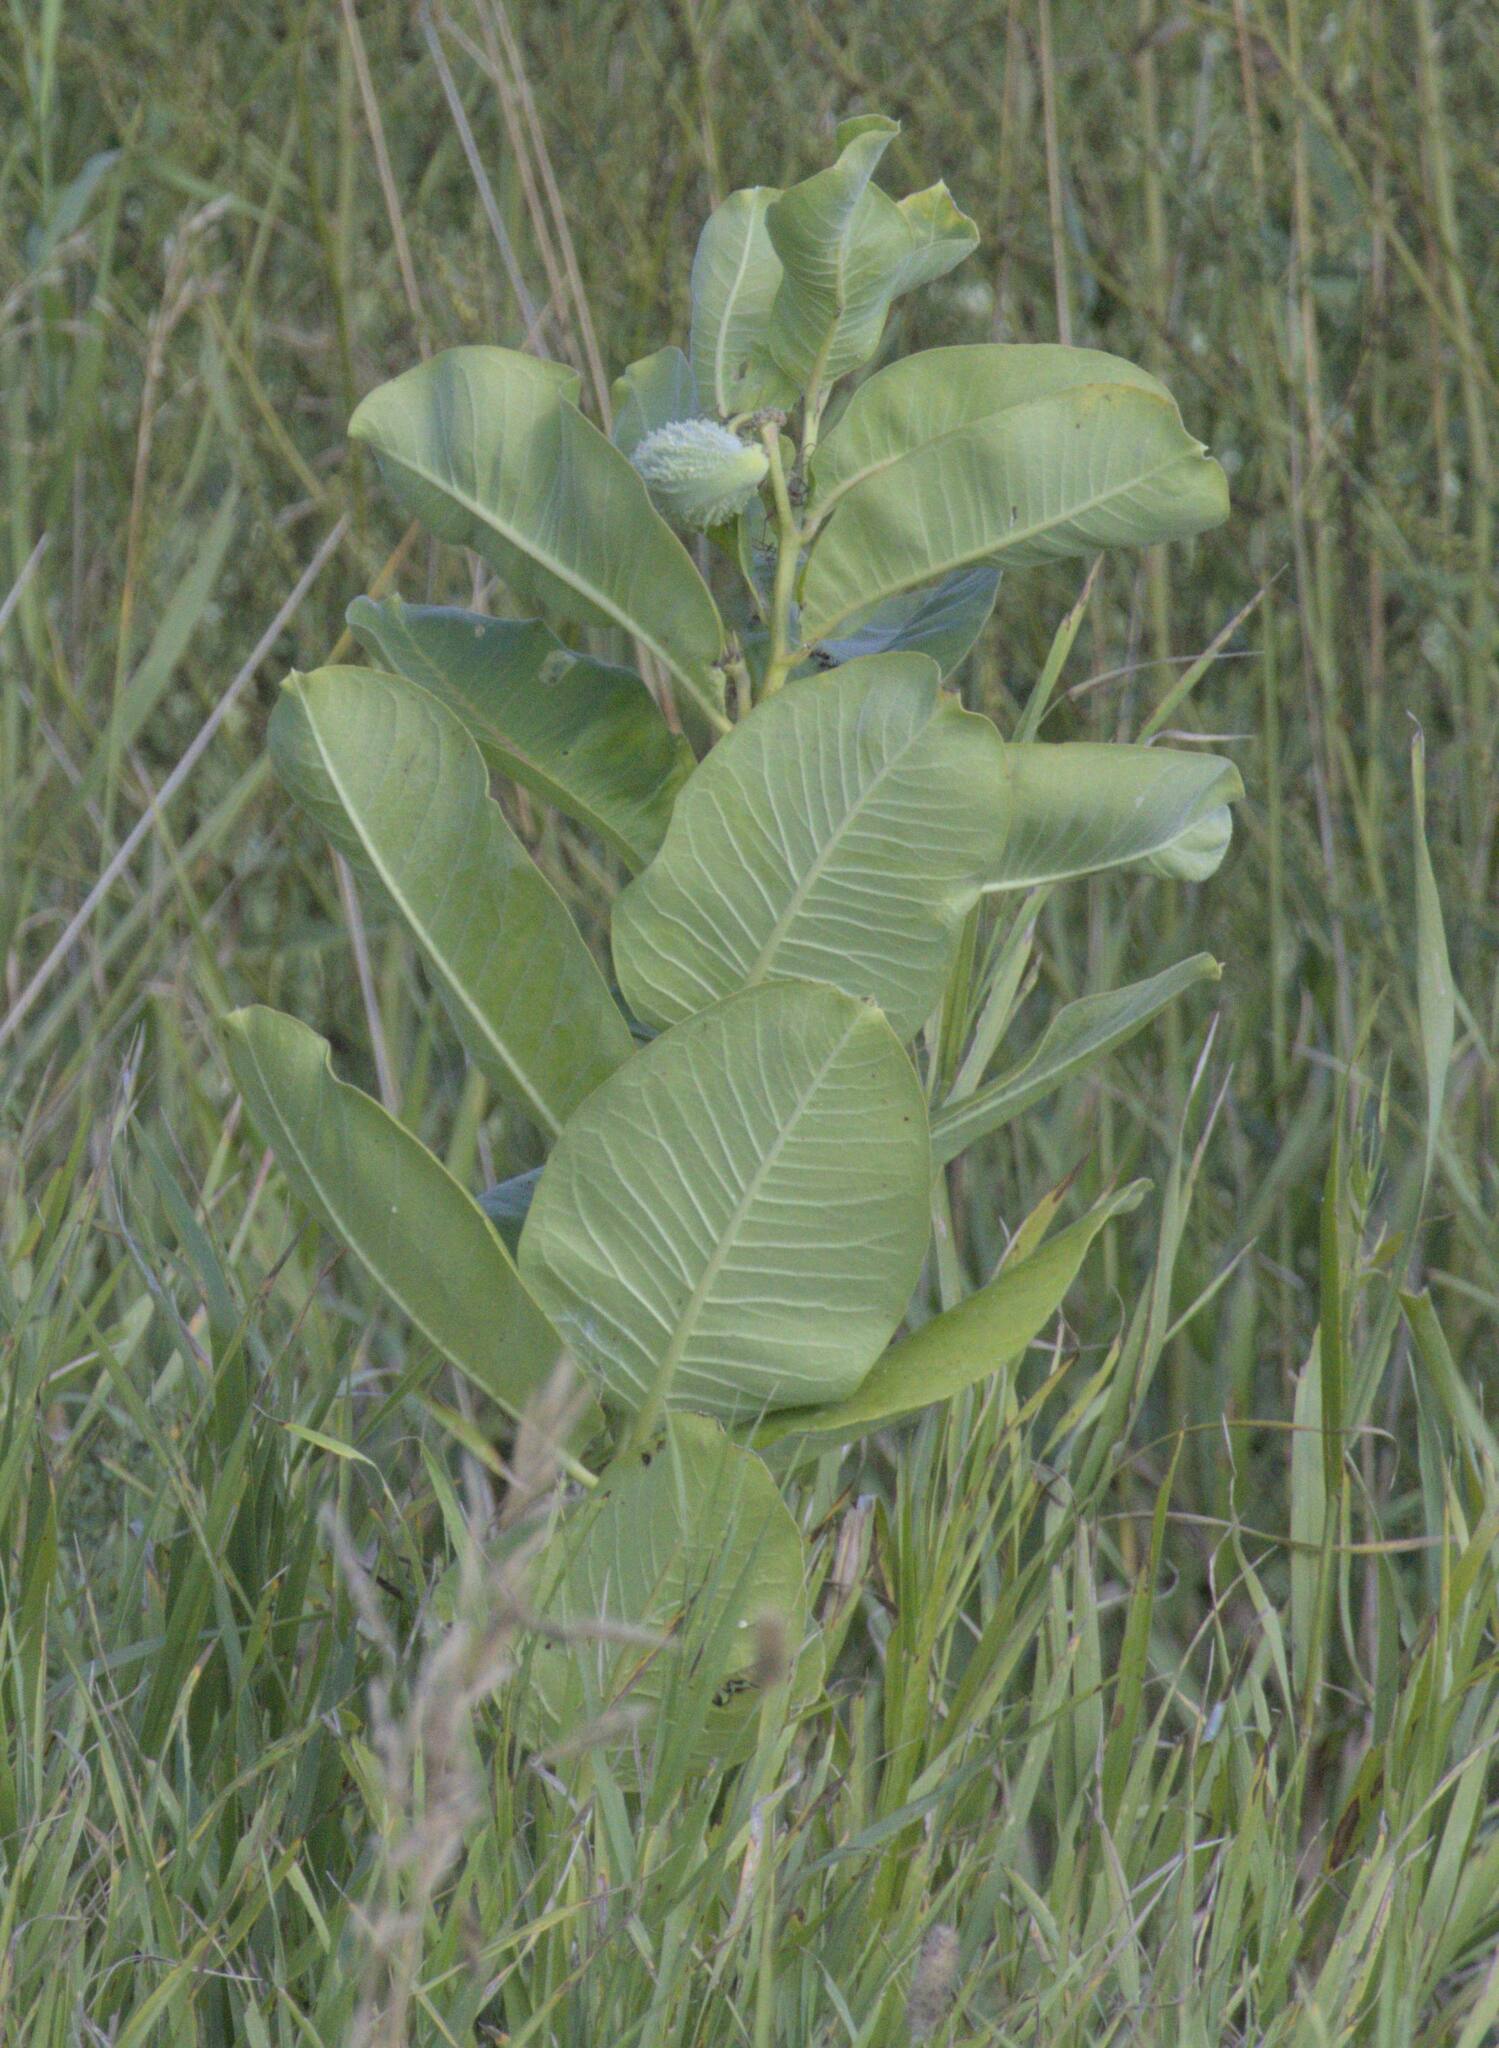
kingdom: Plantae
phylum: Tracheophyta
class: Magnoliopsida
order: Gentianales
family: Apocynaceae
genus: Asclepias
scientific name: Asclepias syriaca
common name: Common milkweed
